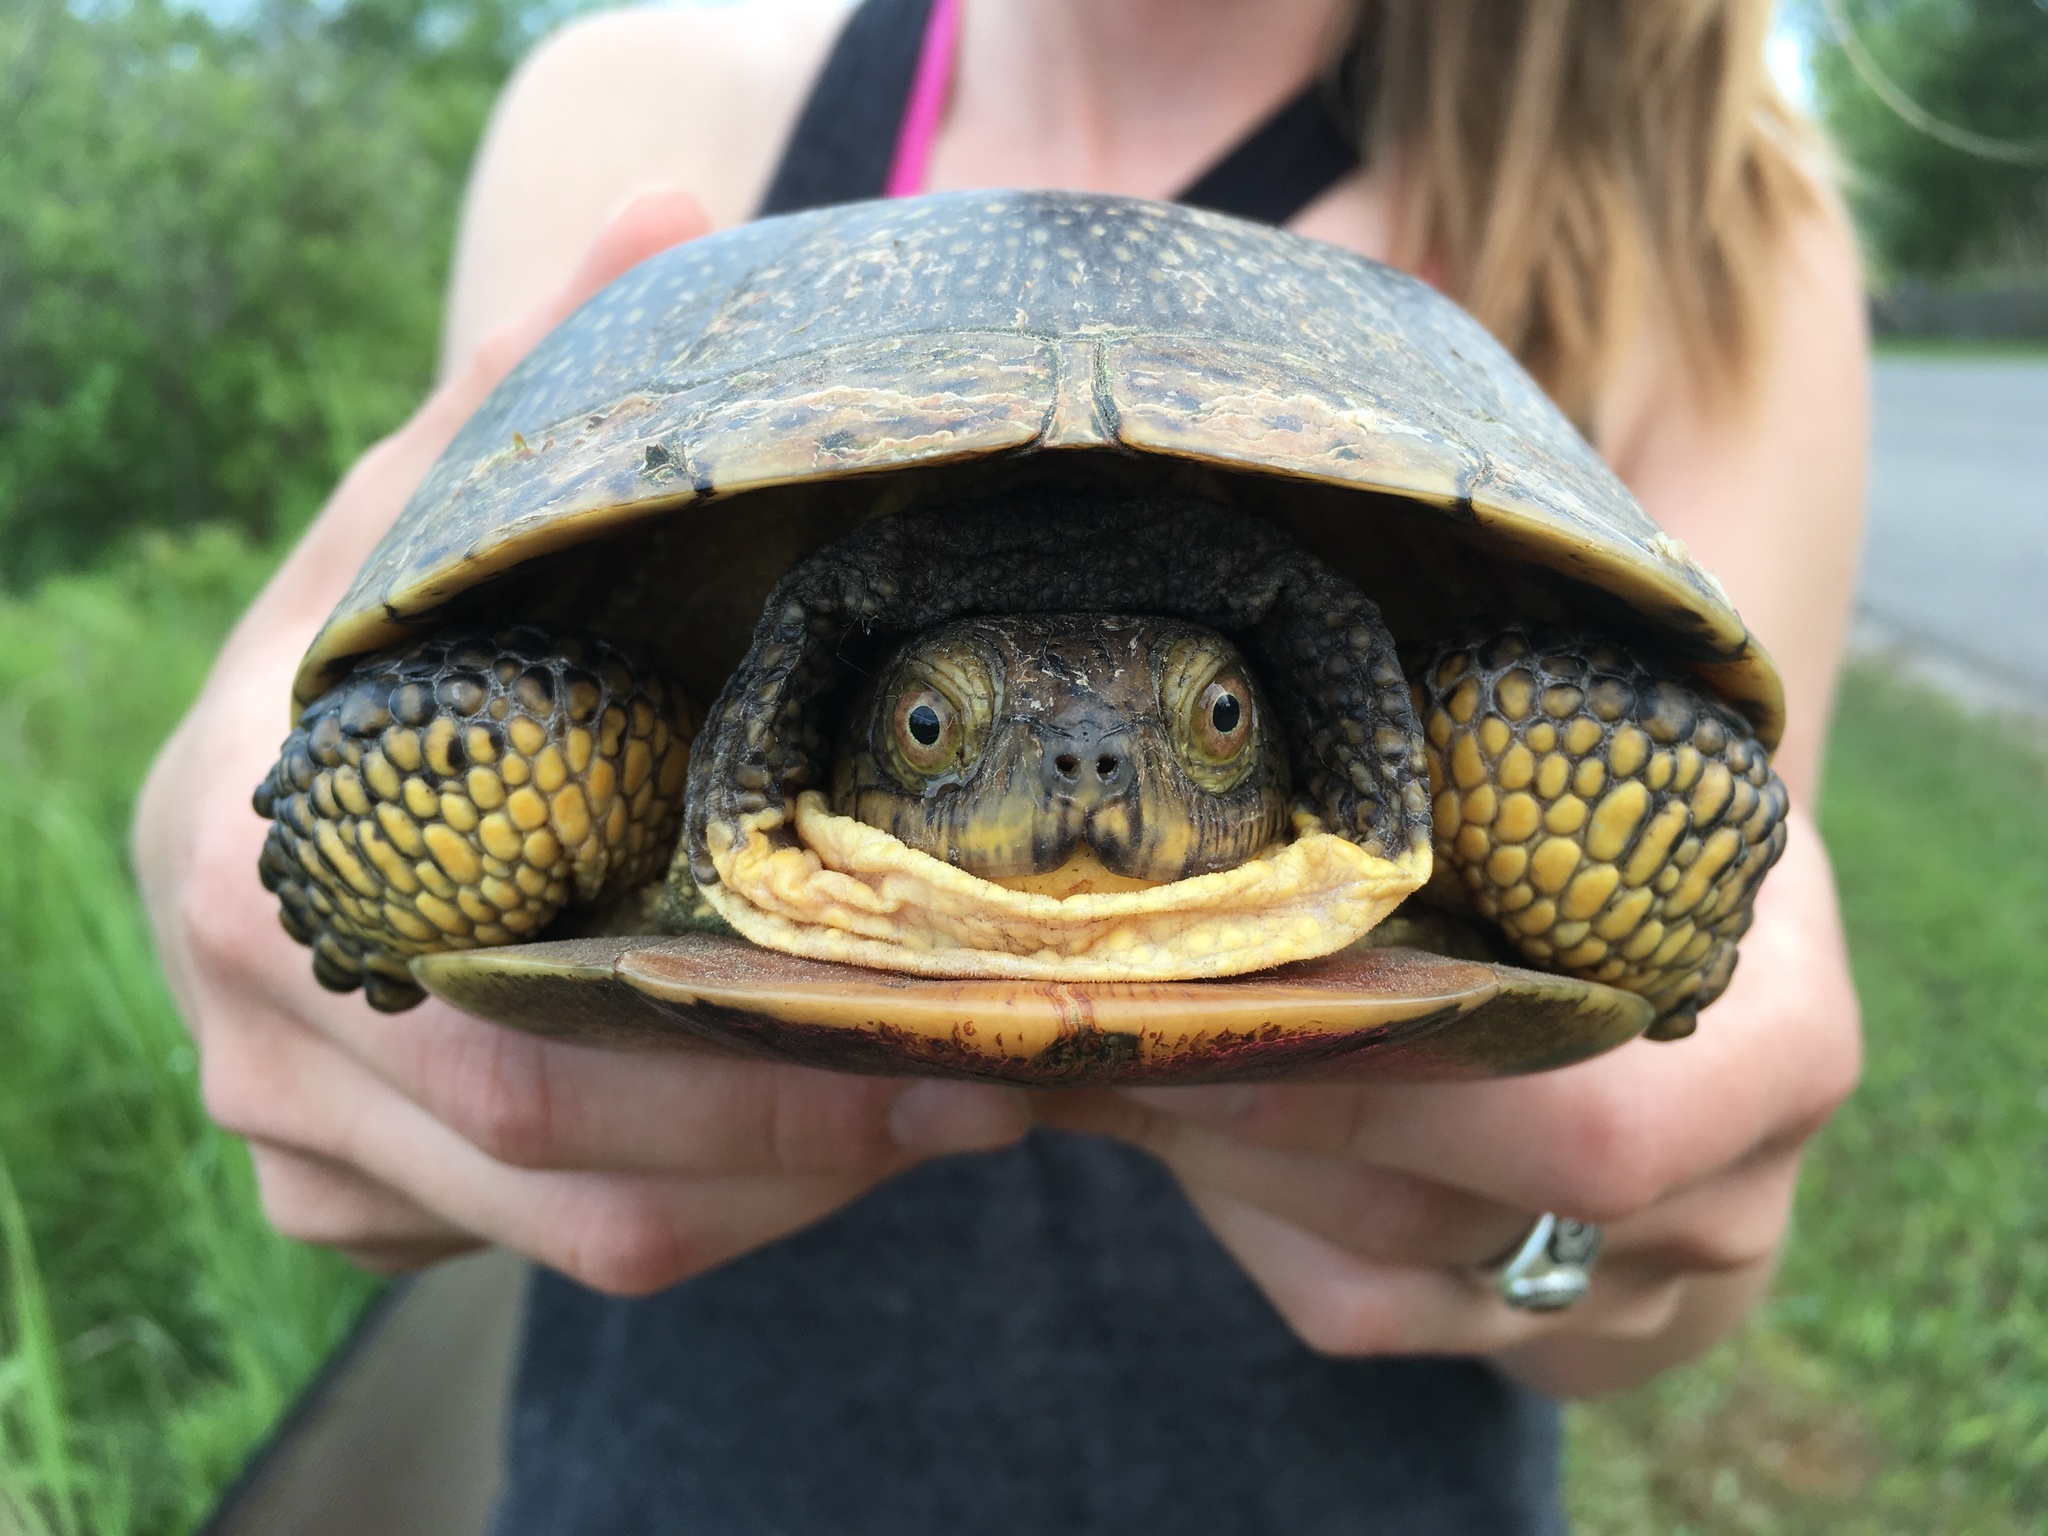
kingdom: Animalia
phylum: Chordata
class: Testudines
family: Emydidae
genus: Emys
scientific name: Emys blandingii
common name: Blanding's turtle
